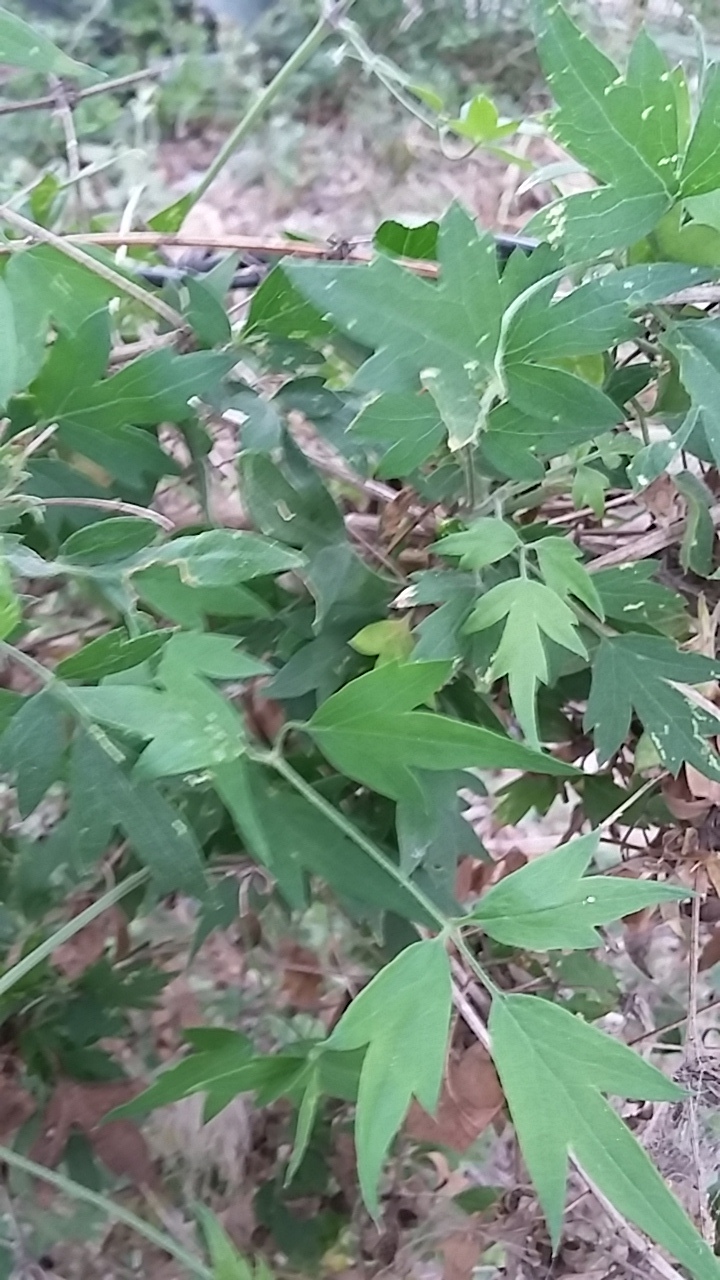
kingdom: Plantae
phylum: Tracheophyta
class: Magnoliopsida
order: Ranunculales
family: Ranunculaceae
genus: Clematis
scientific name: Clematis drummondii
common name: Texas virgin's bower
